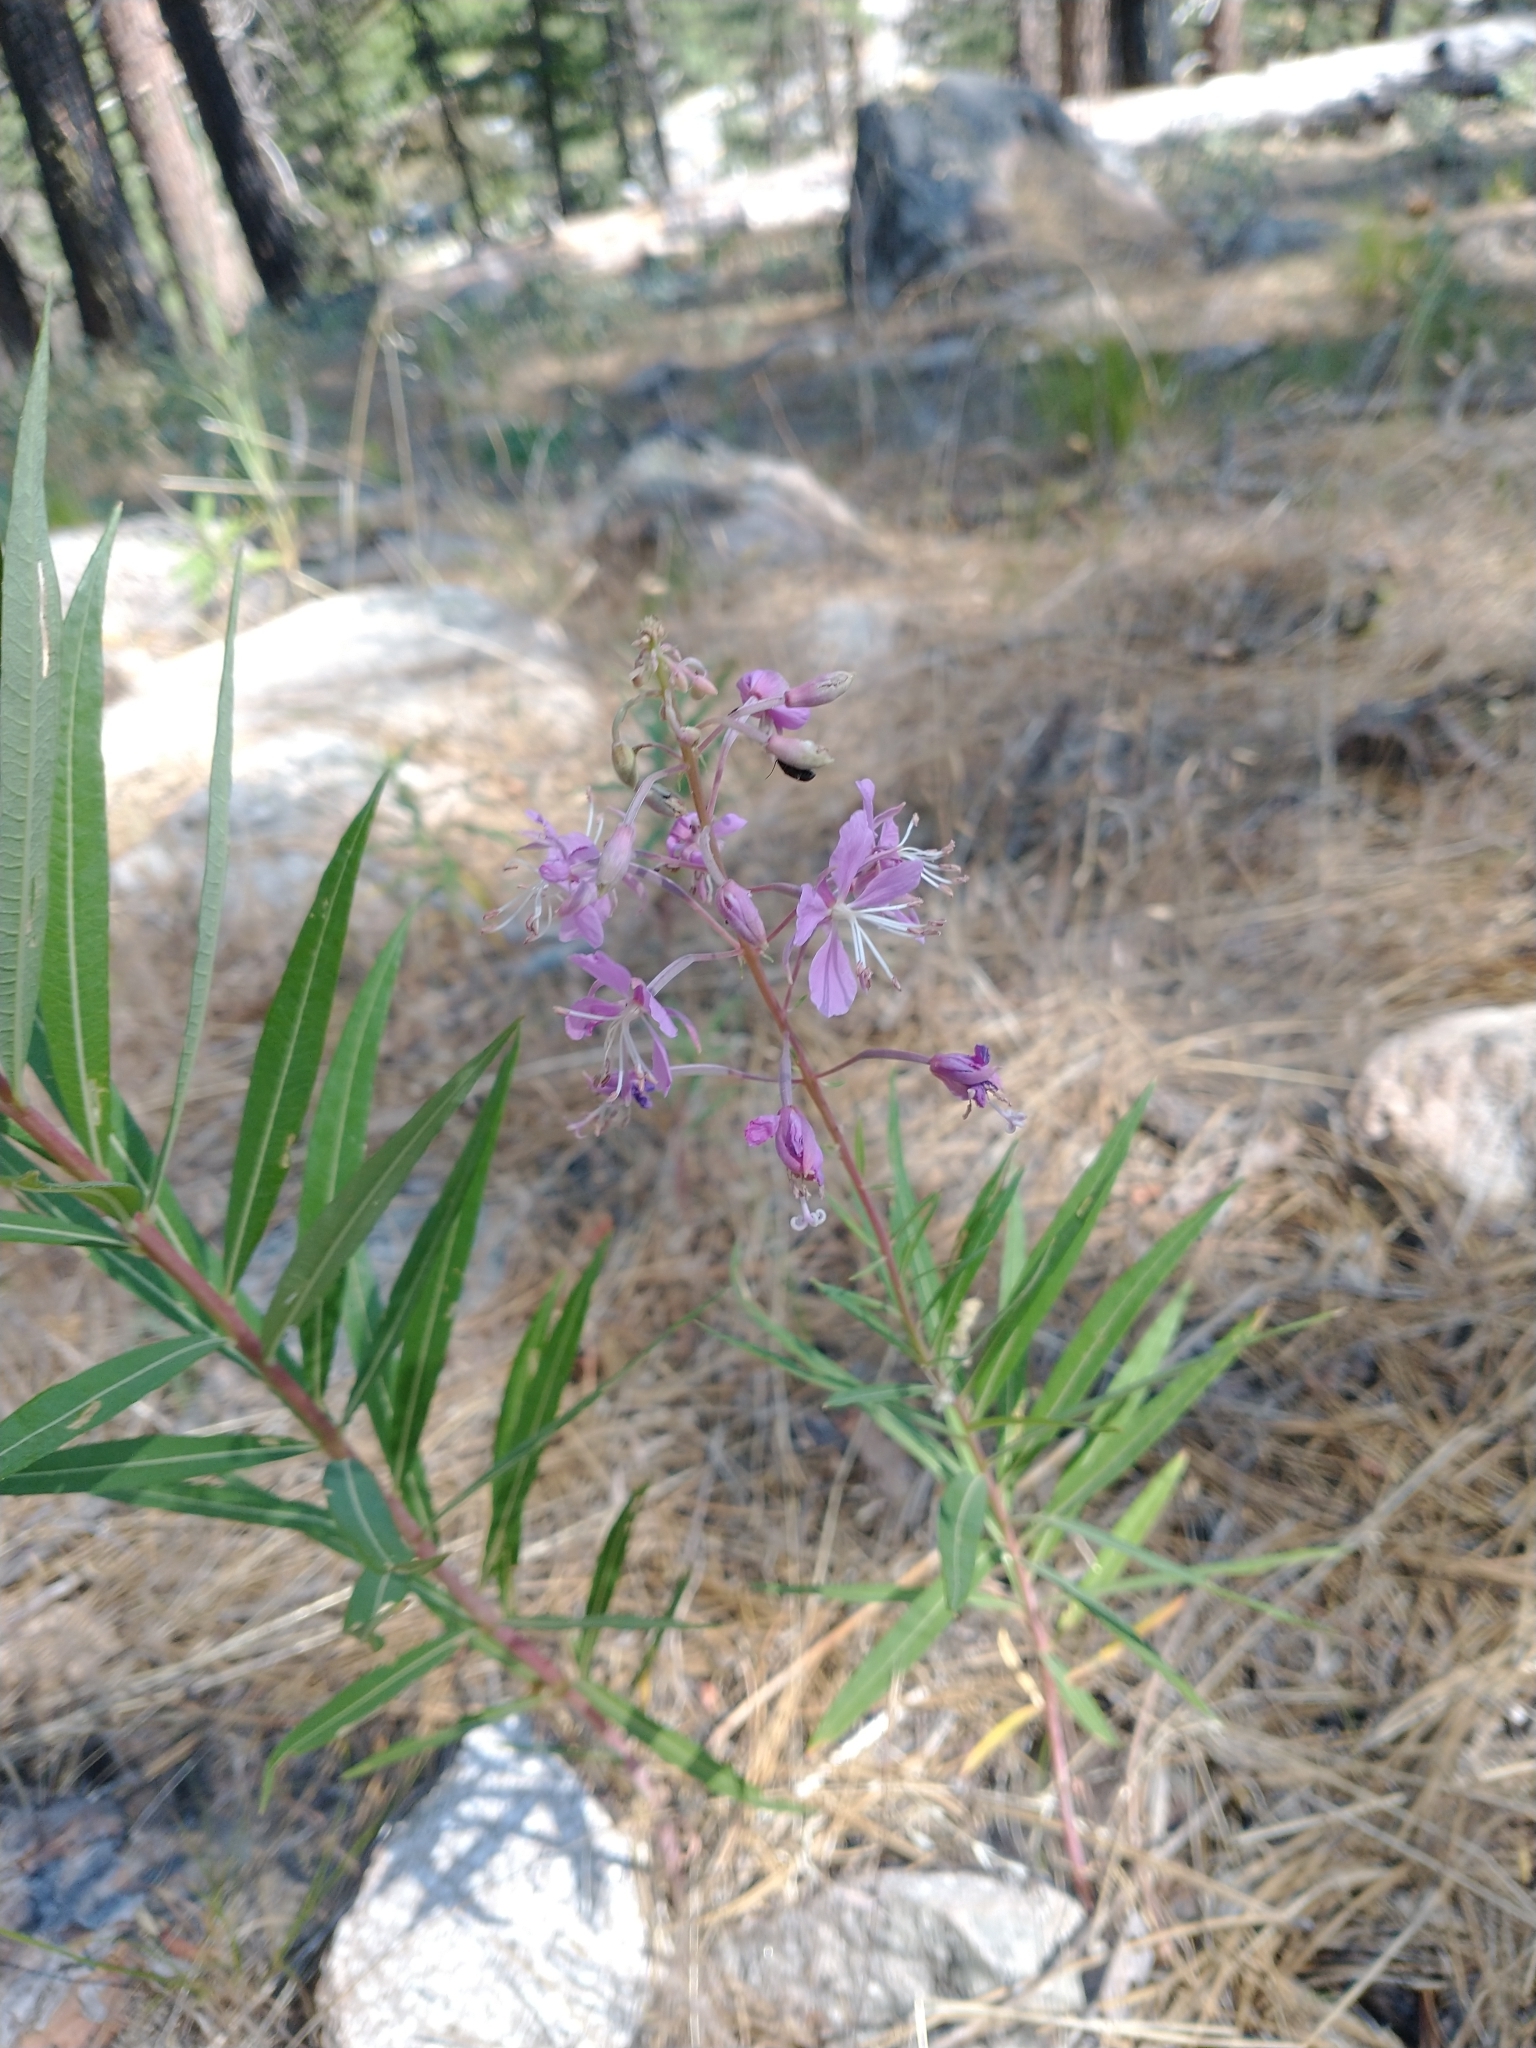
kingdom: Plantae
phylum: Tracheophyta
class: Magnoliopsida
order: Myrtales
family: Onagraceae
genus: Chamaenerion
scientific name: Chamaenerion angustifolium
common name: Fireweed
